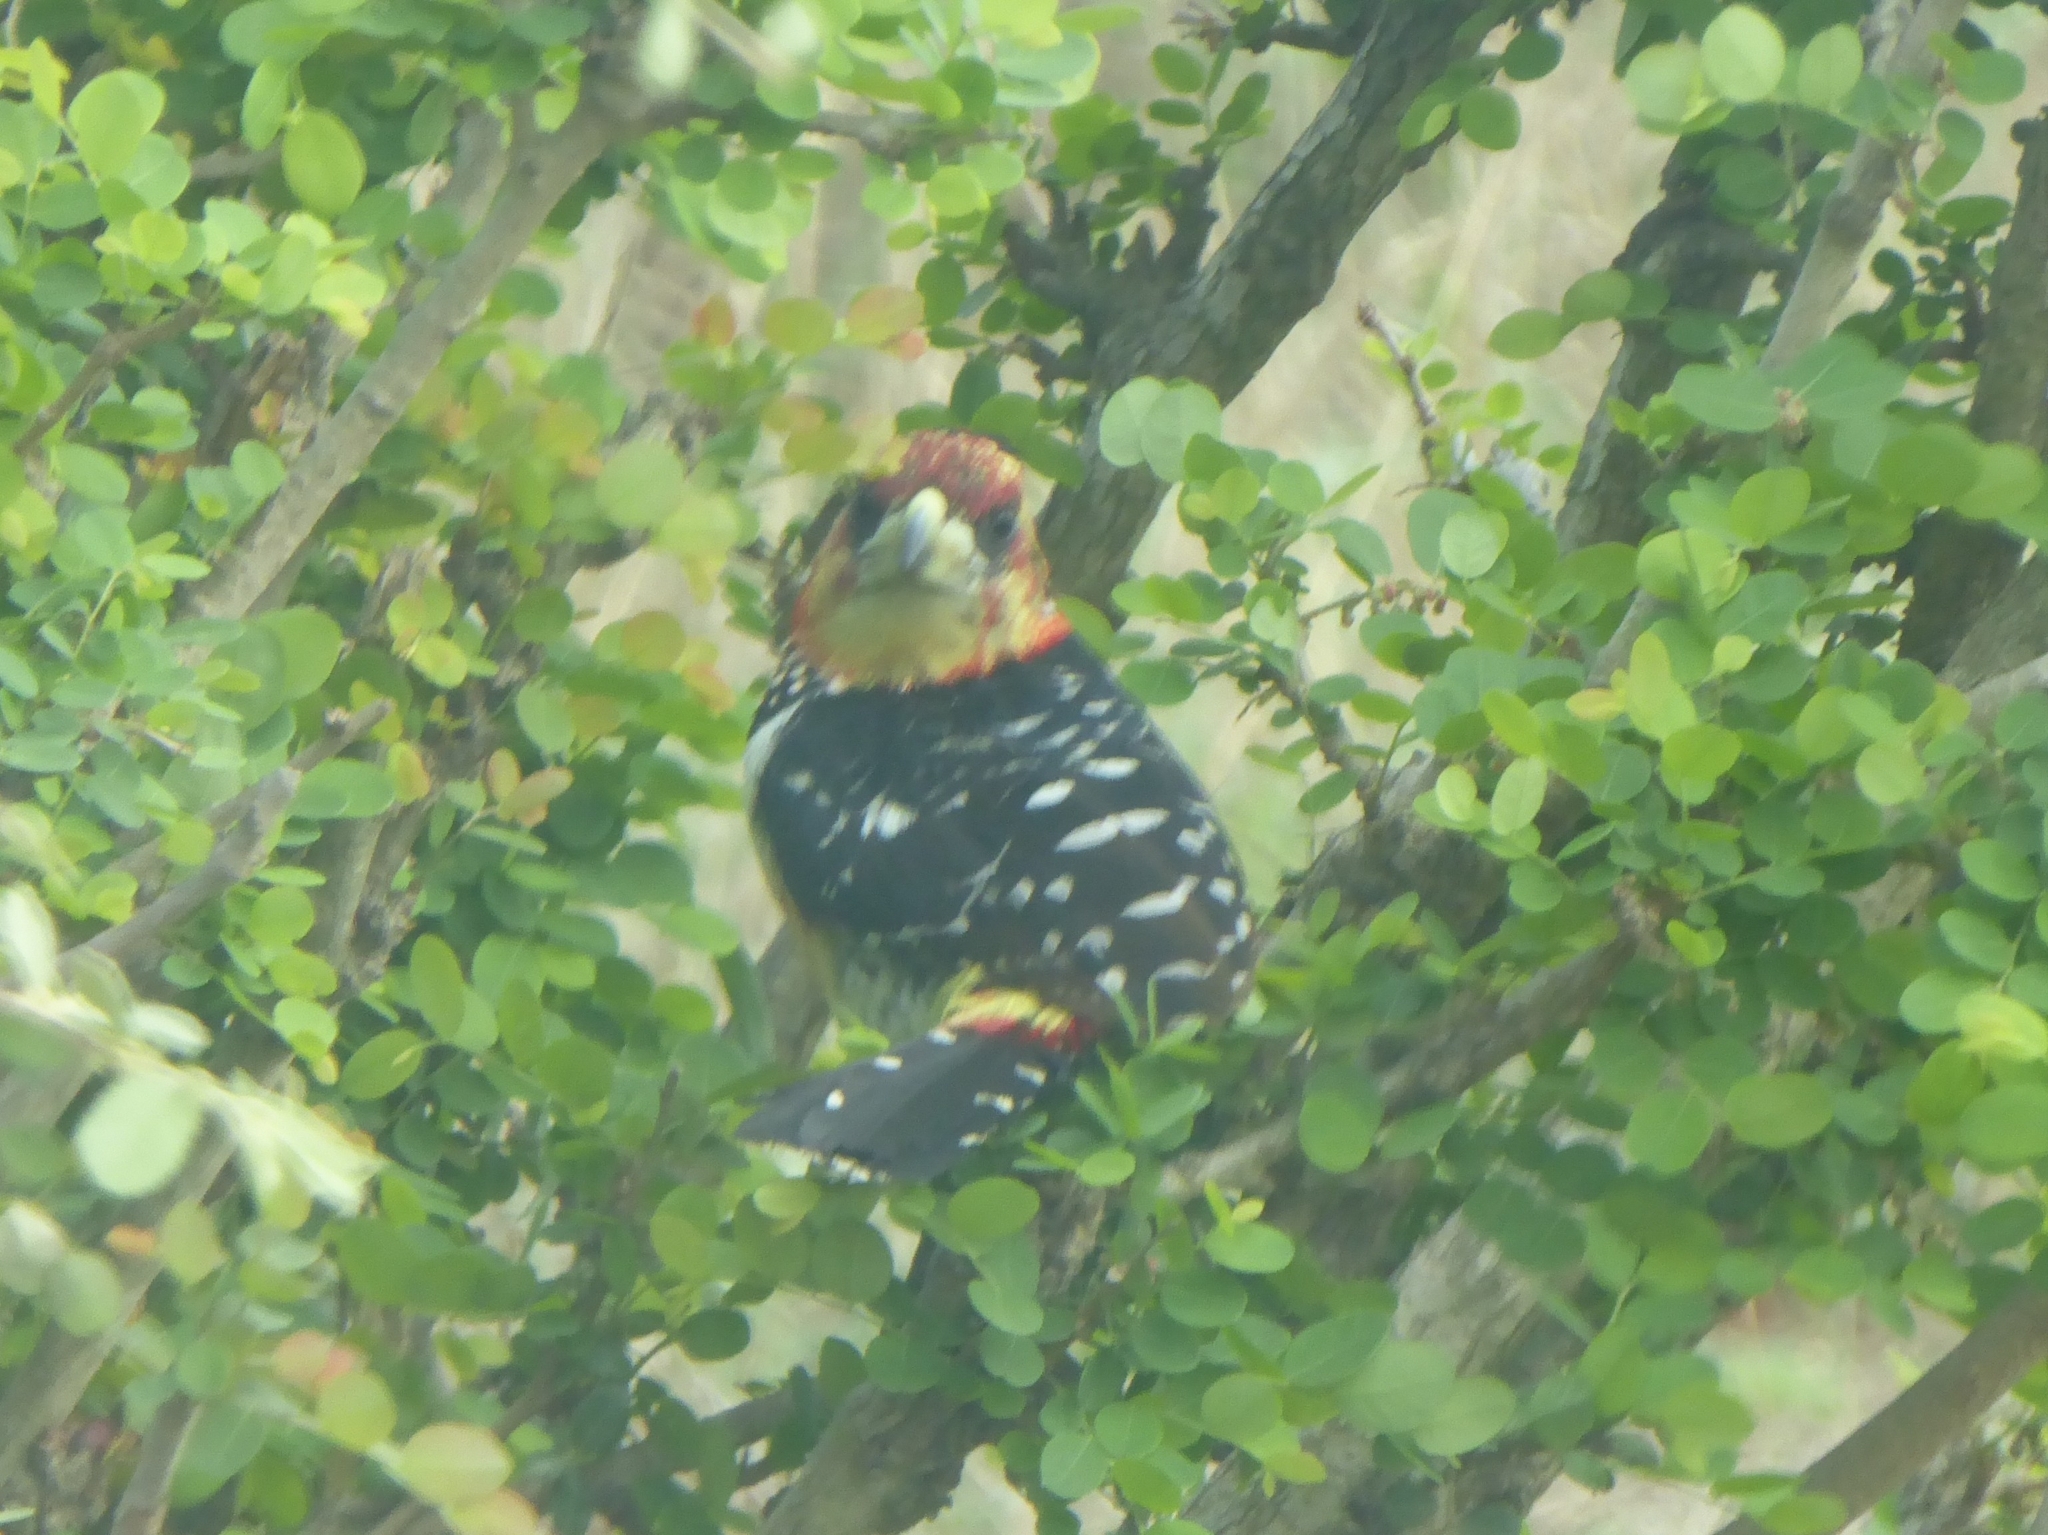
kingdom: Animalia
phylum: Chordata
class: Aves
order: Piciformes
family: Lybiidae
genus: Trachyphonus
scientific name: Trachyphonus vaillantii
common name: Crested barbet
